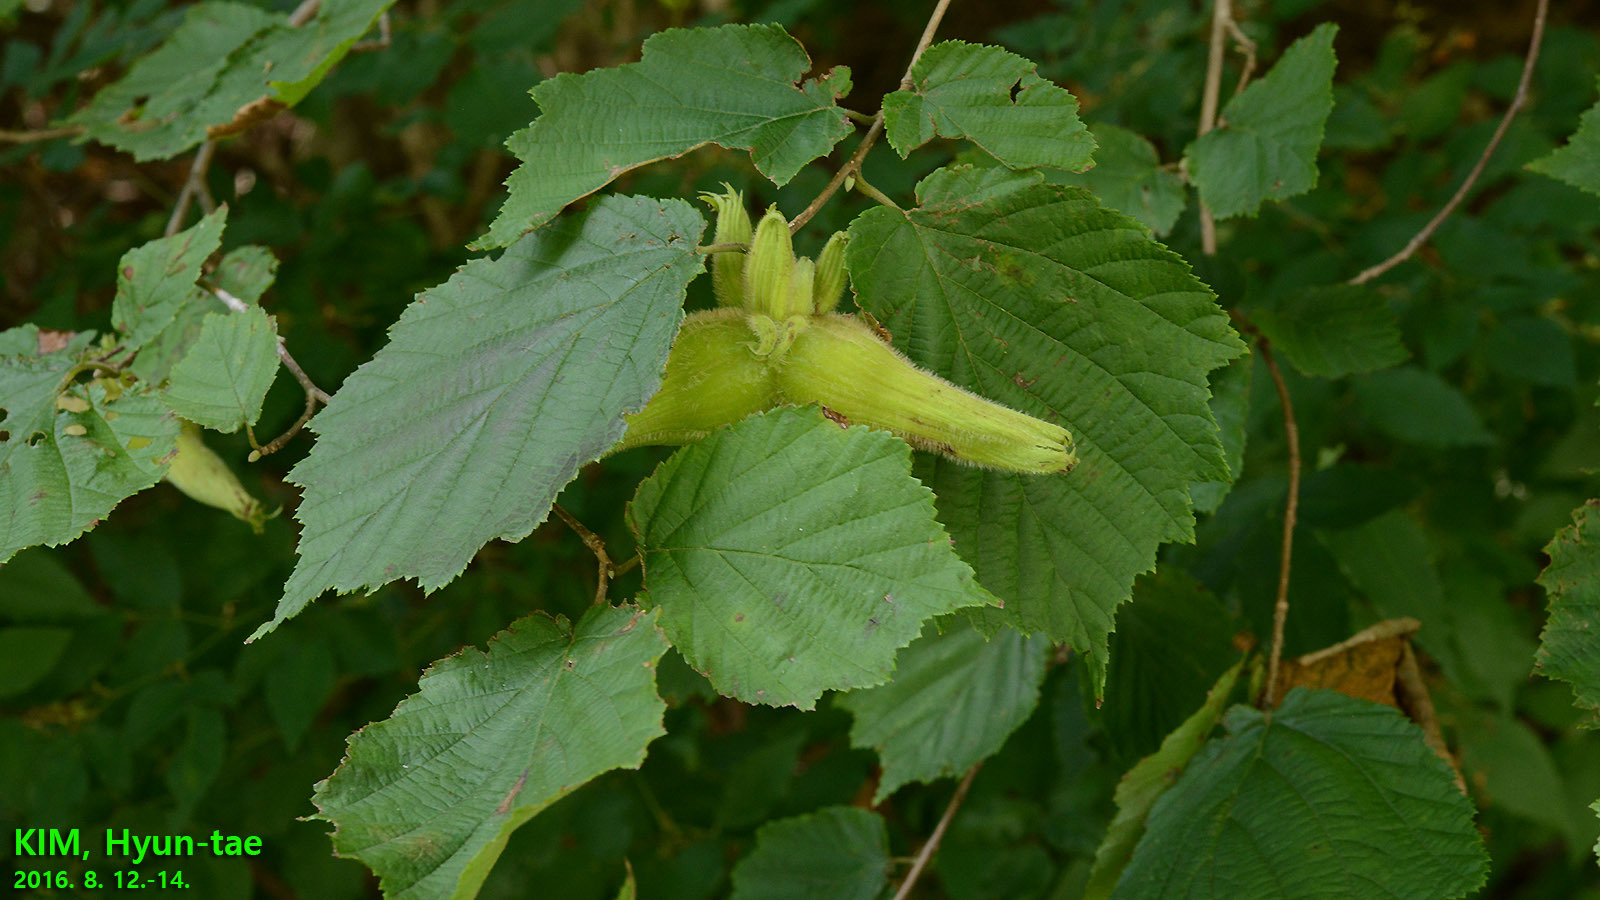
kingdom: Plantae
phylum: Tracheophyta
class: Magnoliopsida
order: Fagales
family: Betulaceae
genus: Corylus
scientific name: Corylus sieboldiana
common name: Japanese hazel
